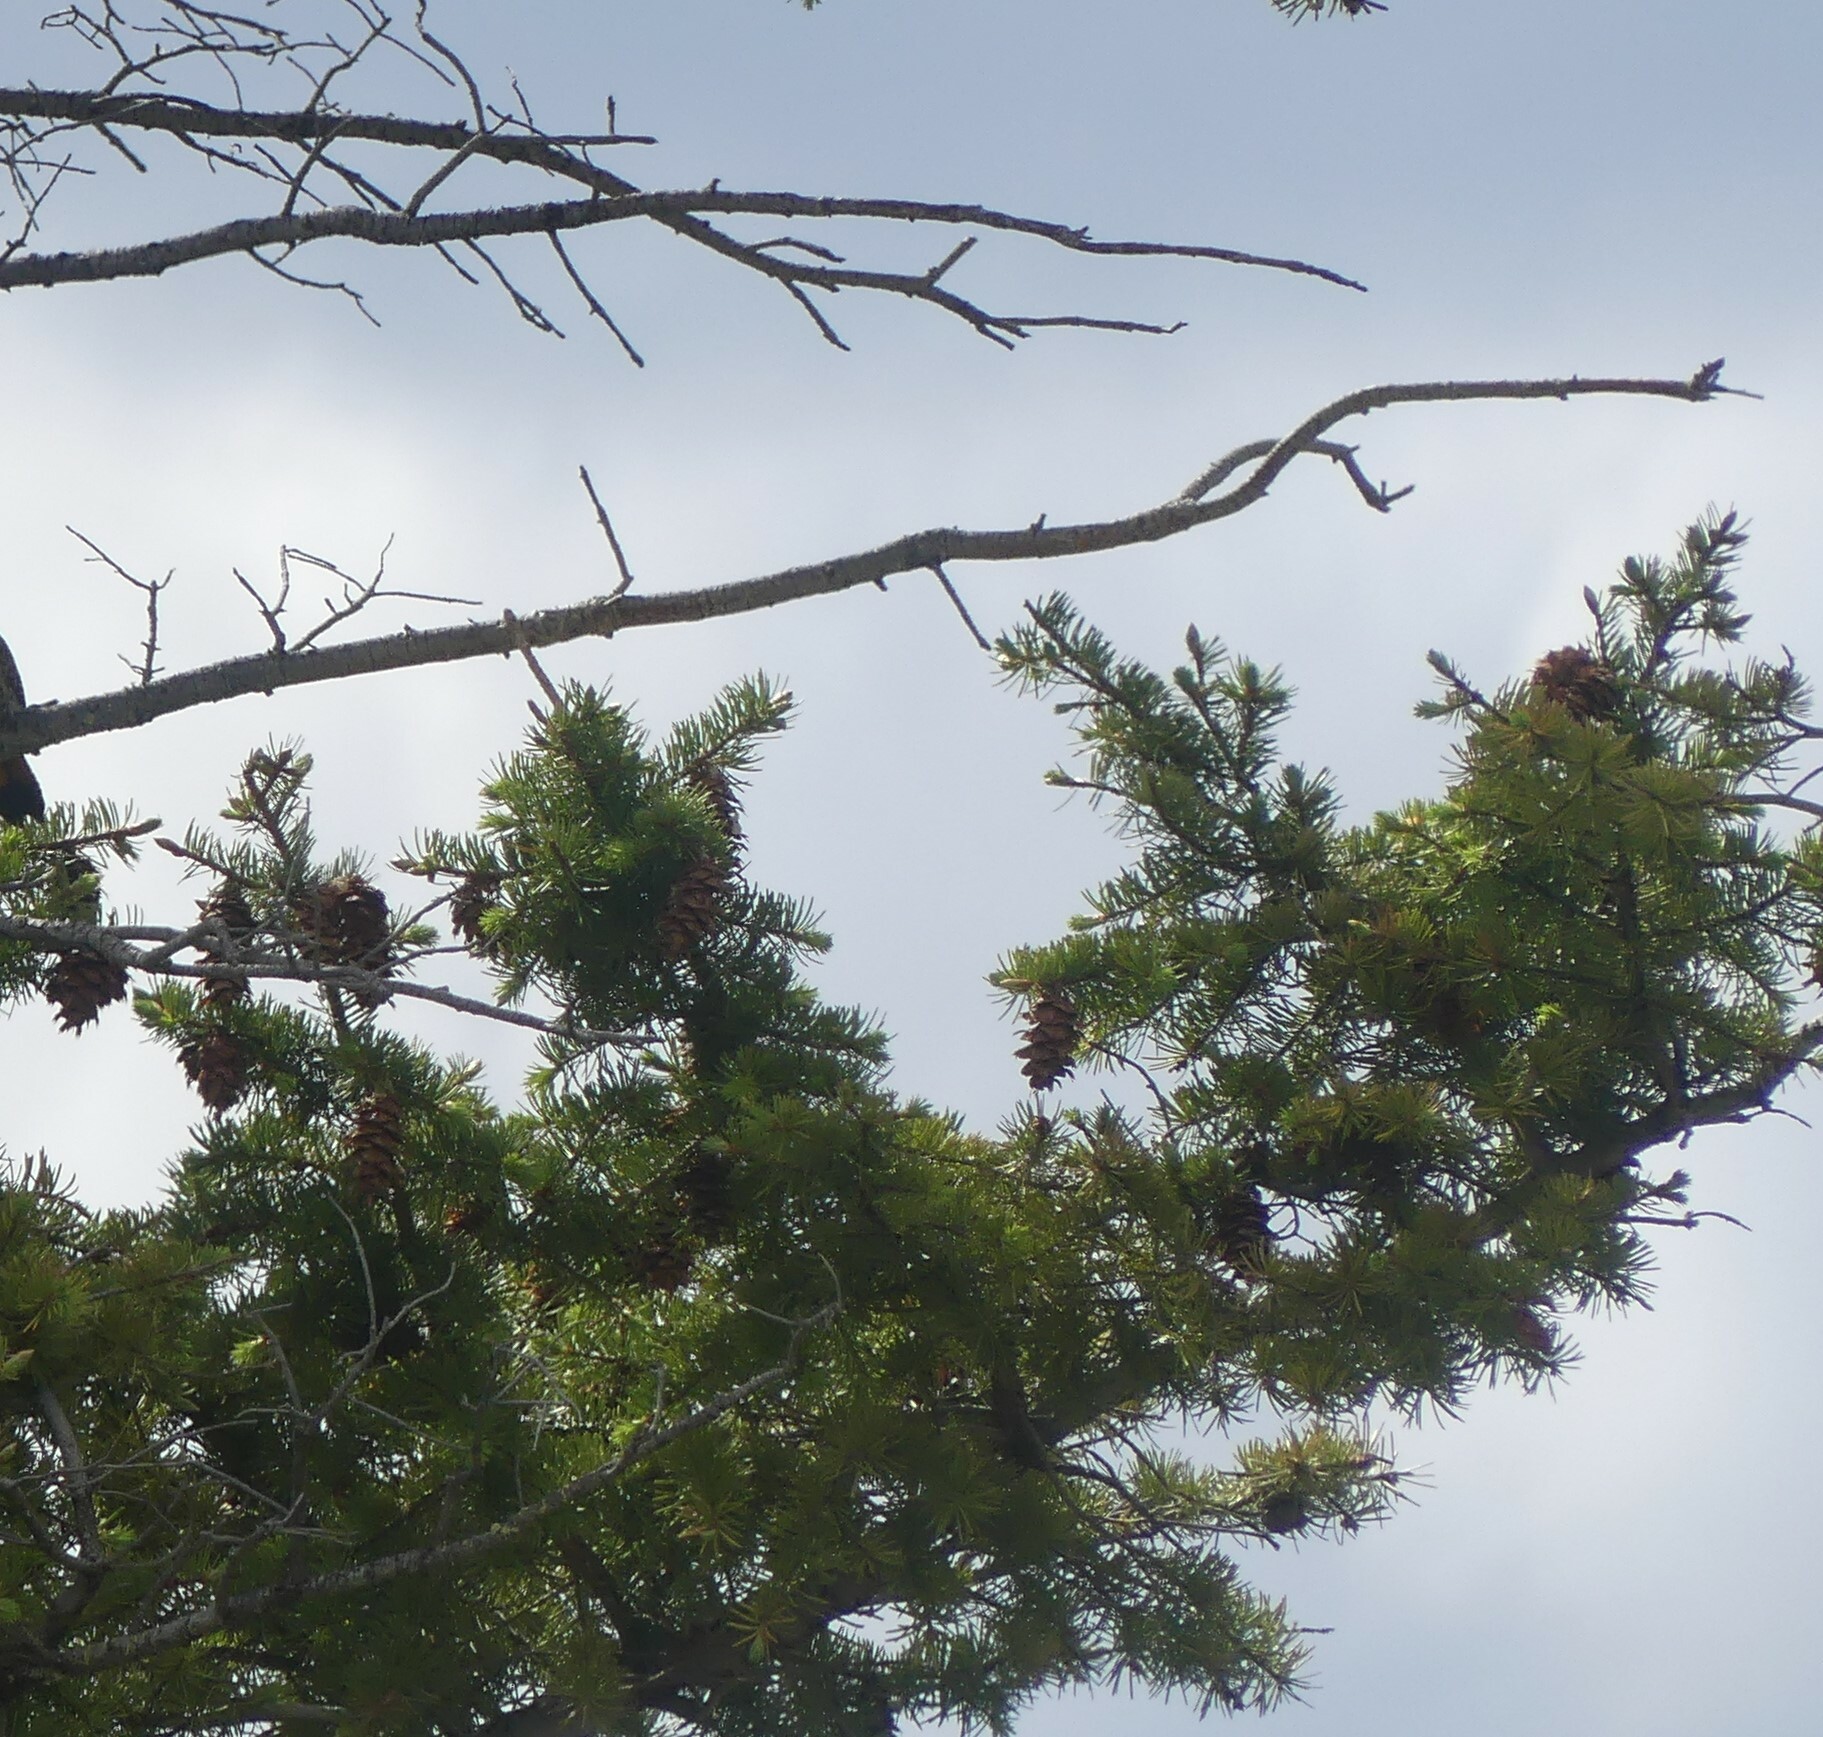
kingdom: Plantae
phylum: Tracheophyta
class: Pinopsida
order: Pinales
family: Pinaceae
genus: Pseudotsuga
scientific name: Pseudotsuga menziesii
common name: Douglas fir
